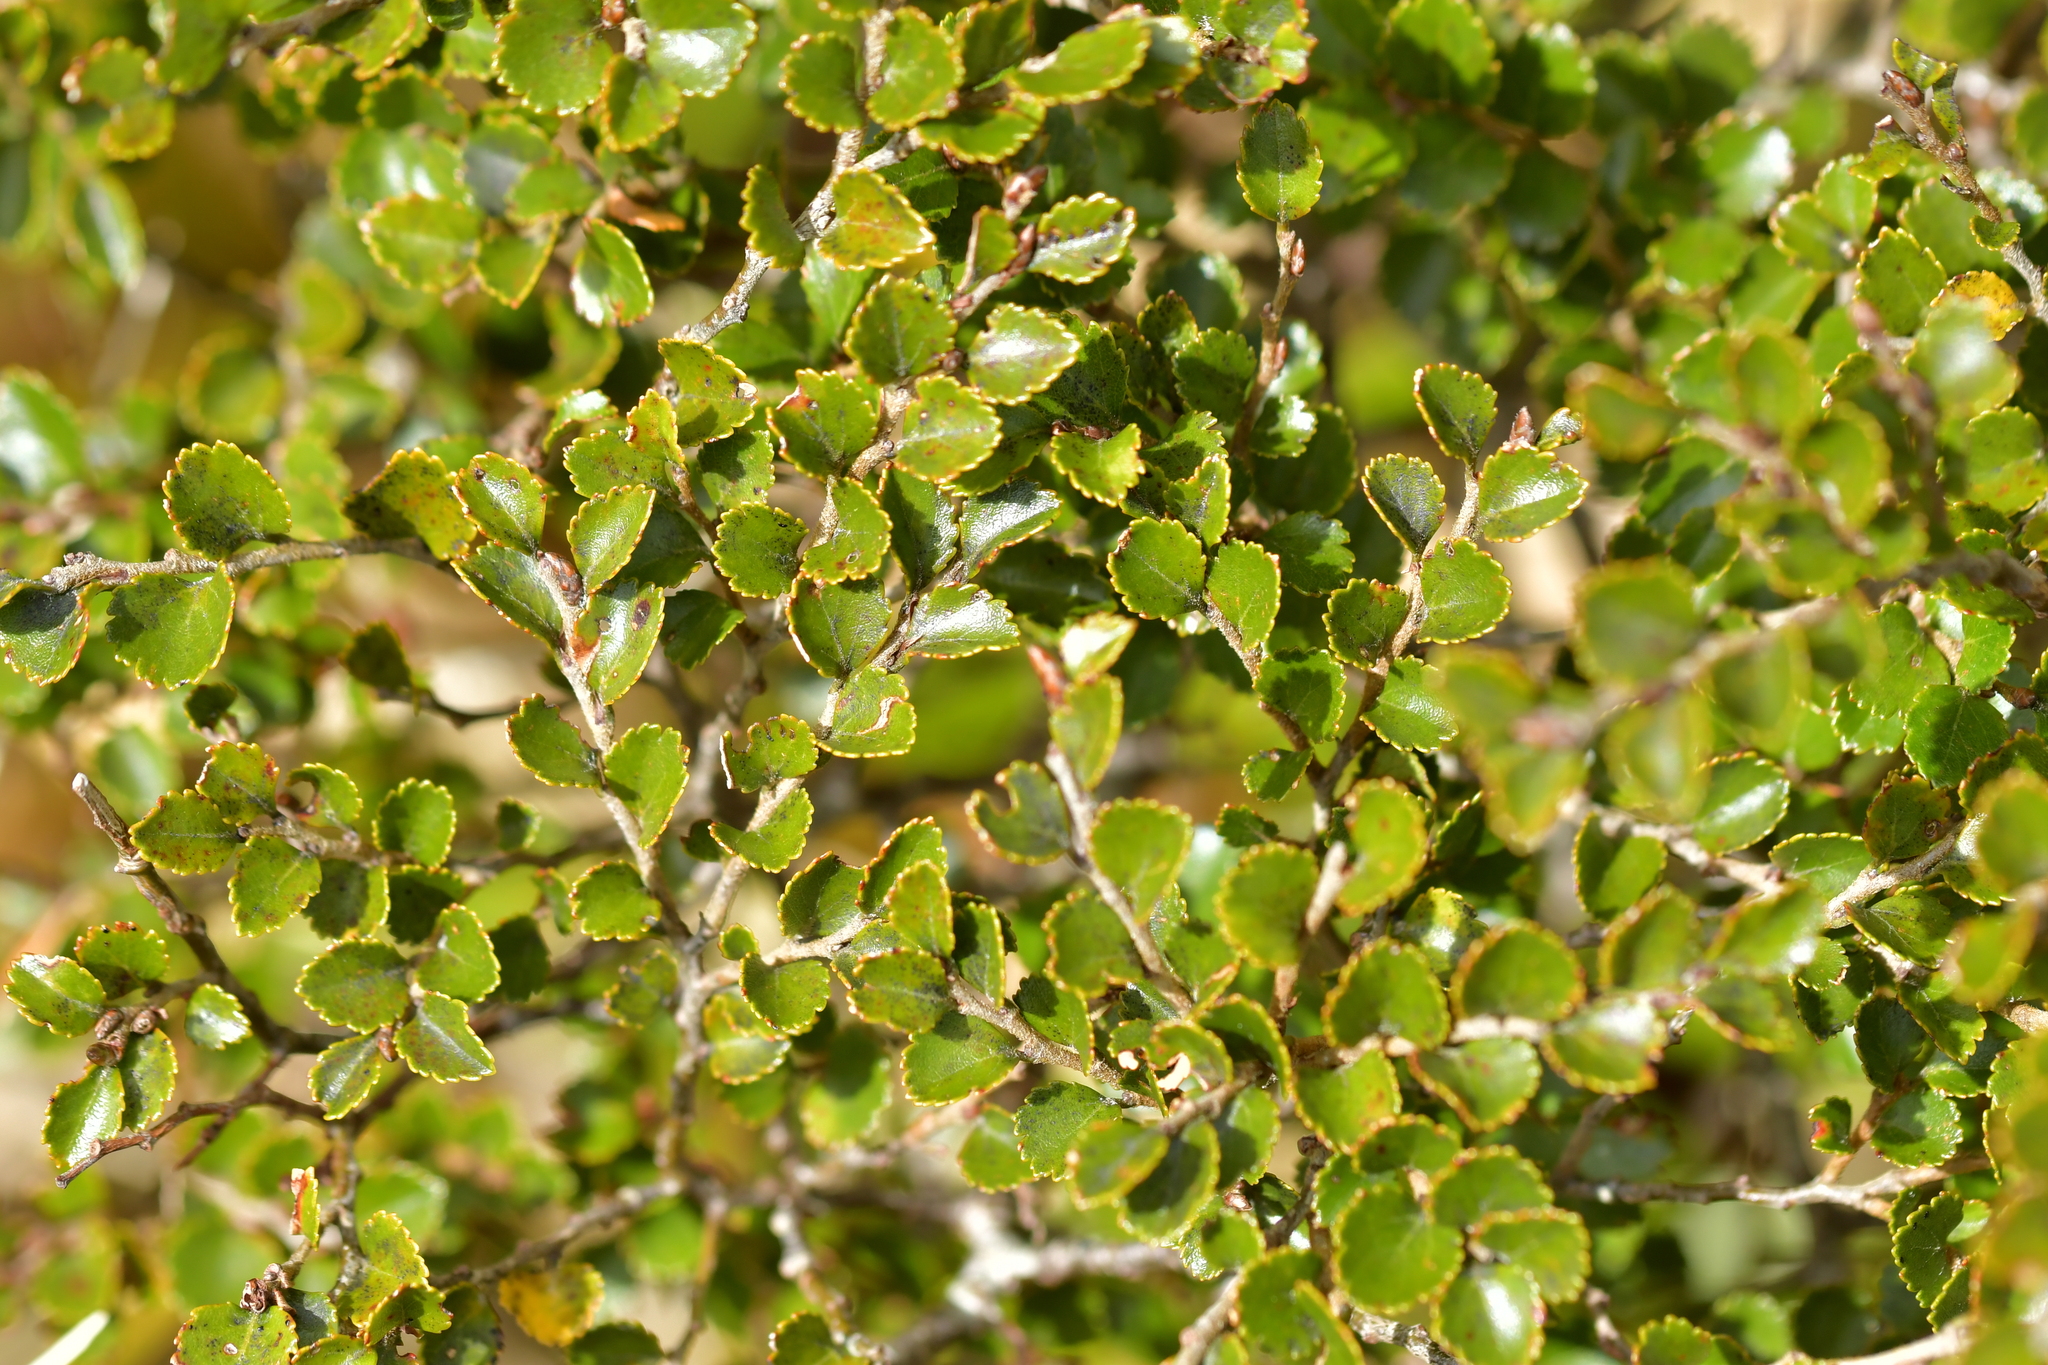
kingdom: Plantae
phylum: Tracheophyta
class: Magnoliopsida
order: Fagales
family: Nothofagaceae
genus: Nothofagus
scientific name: Nothofagus menziesii
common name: Silver beech
